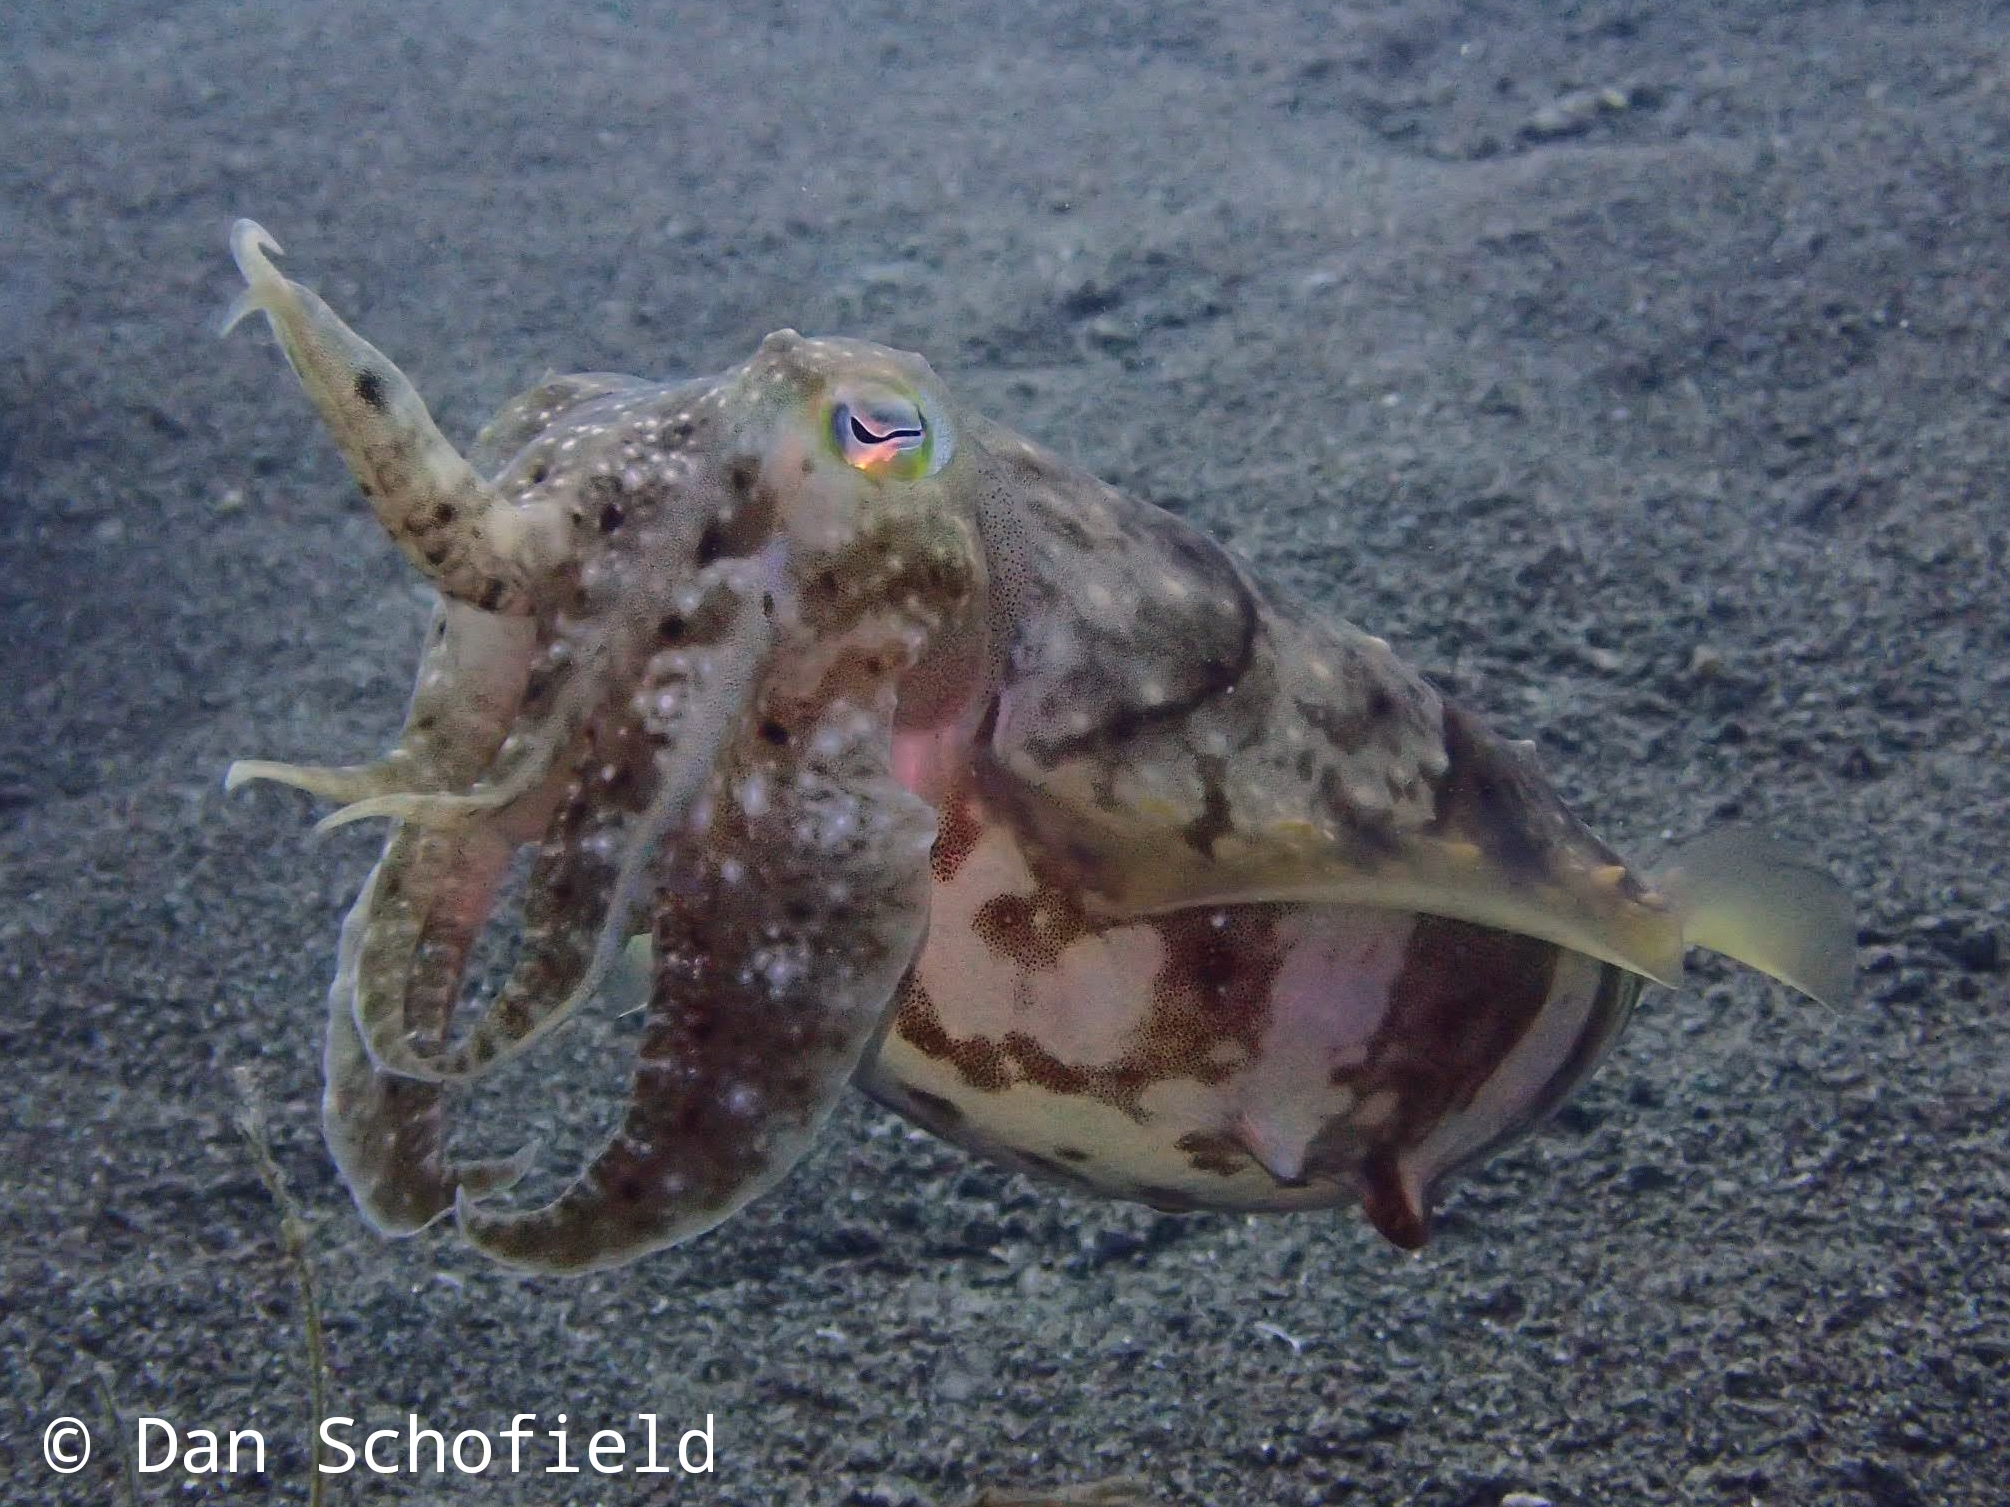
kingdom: Animalia
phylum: Mollusca
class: Cephalopoda
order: Sepiida
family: Sepiidae
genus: Ascarosepion
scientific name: Ascarosepion latimanus
